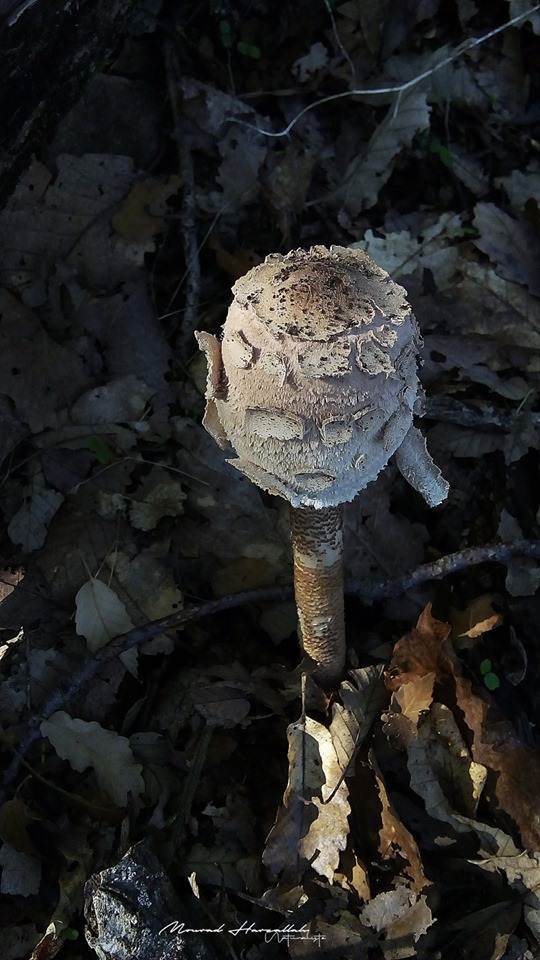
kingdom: Fungi
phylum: Basidiomycota
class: Agaricomycetes
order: Agaricales
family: Agaricaceae
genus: Macrolepiota
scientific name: Macrolepiota procera
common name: Parasol
